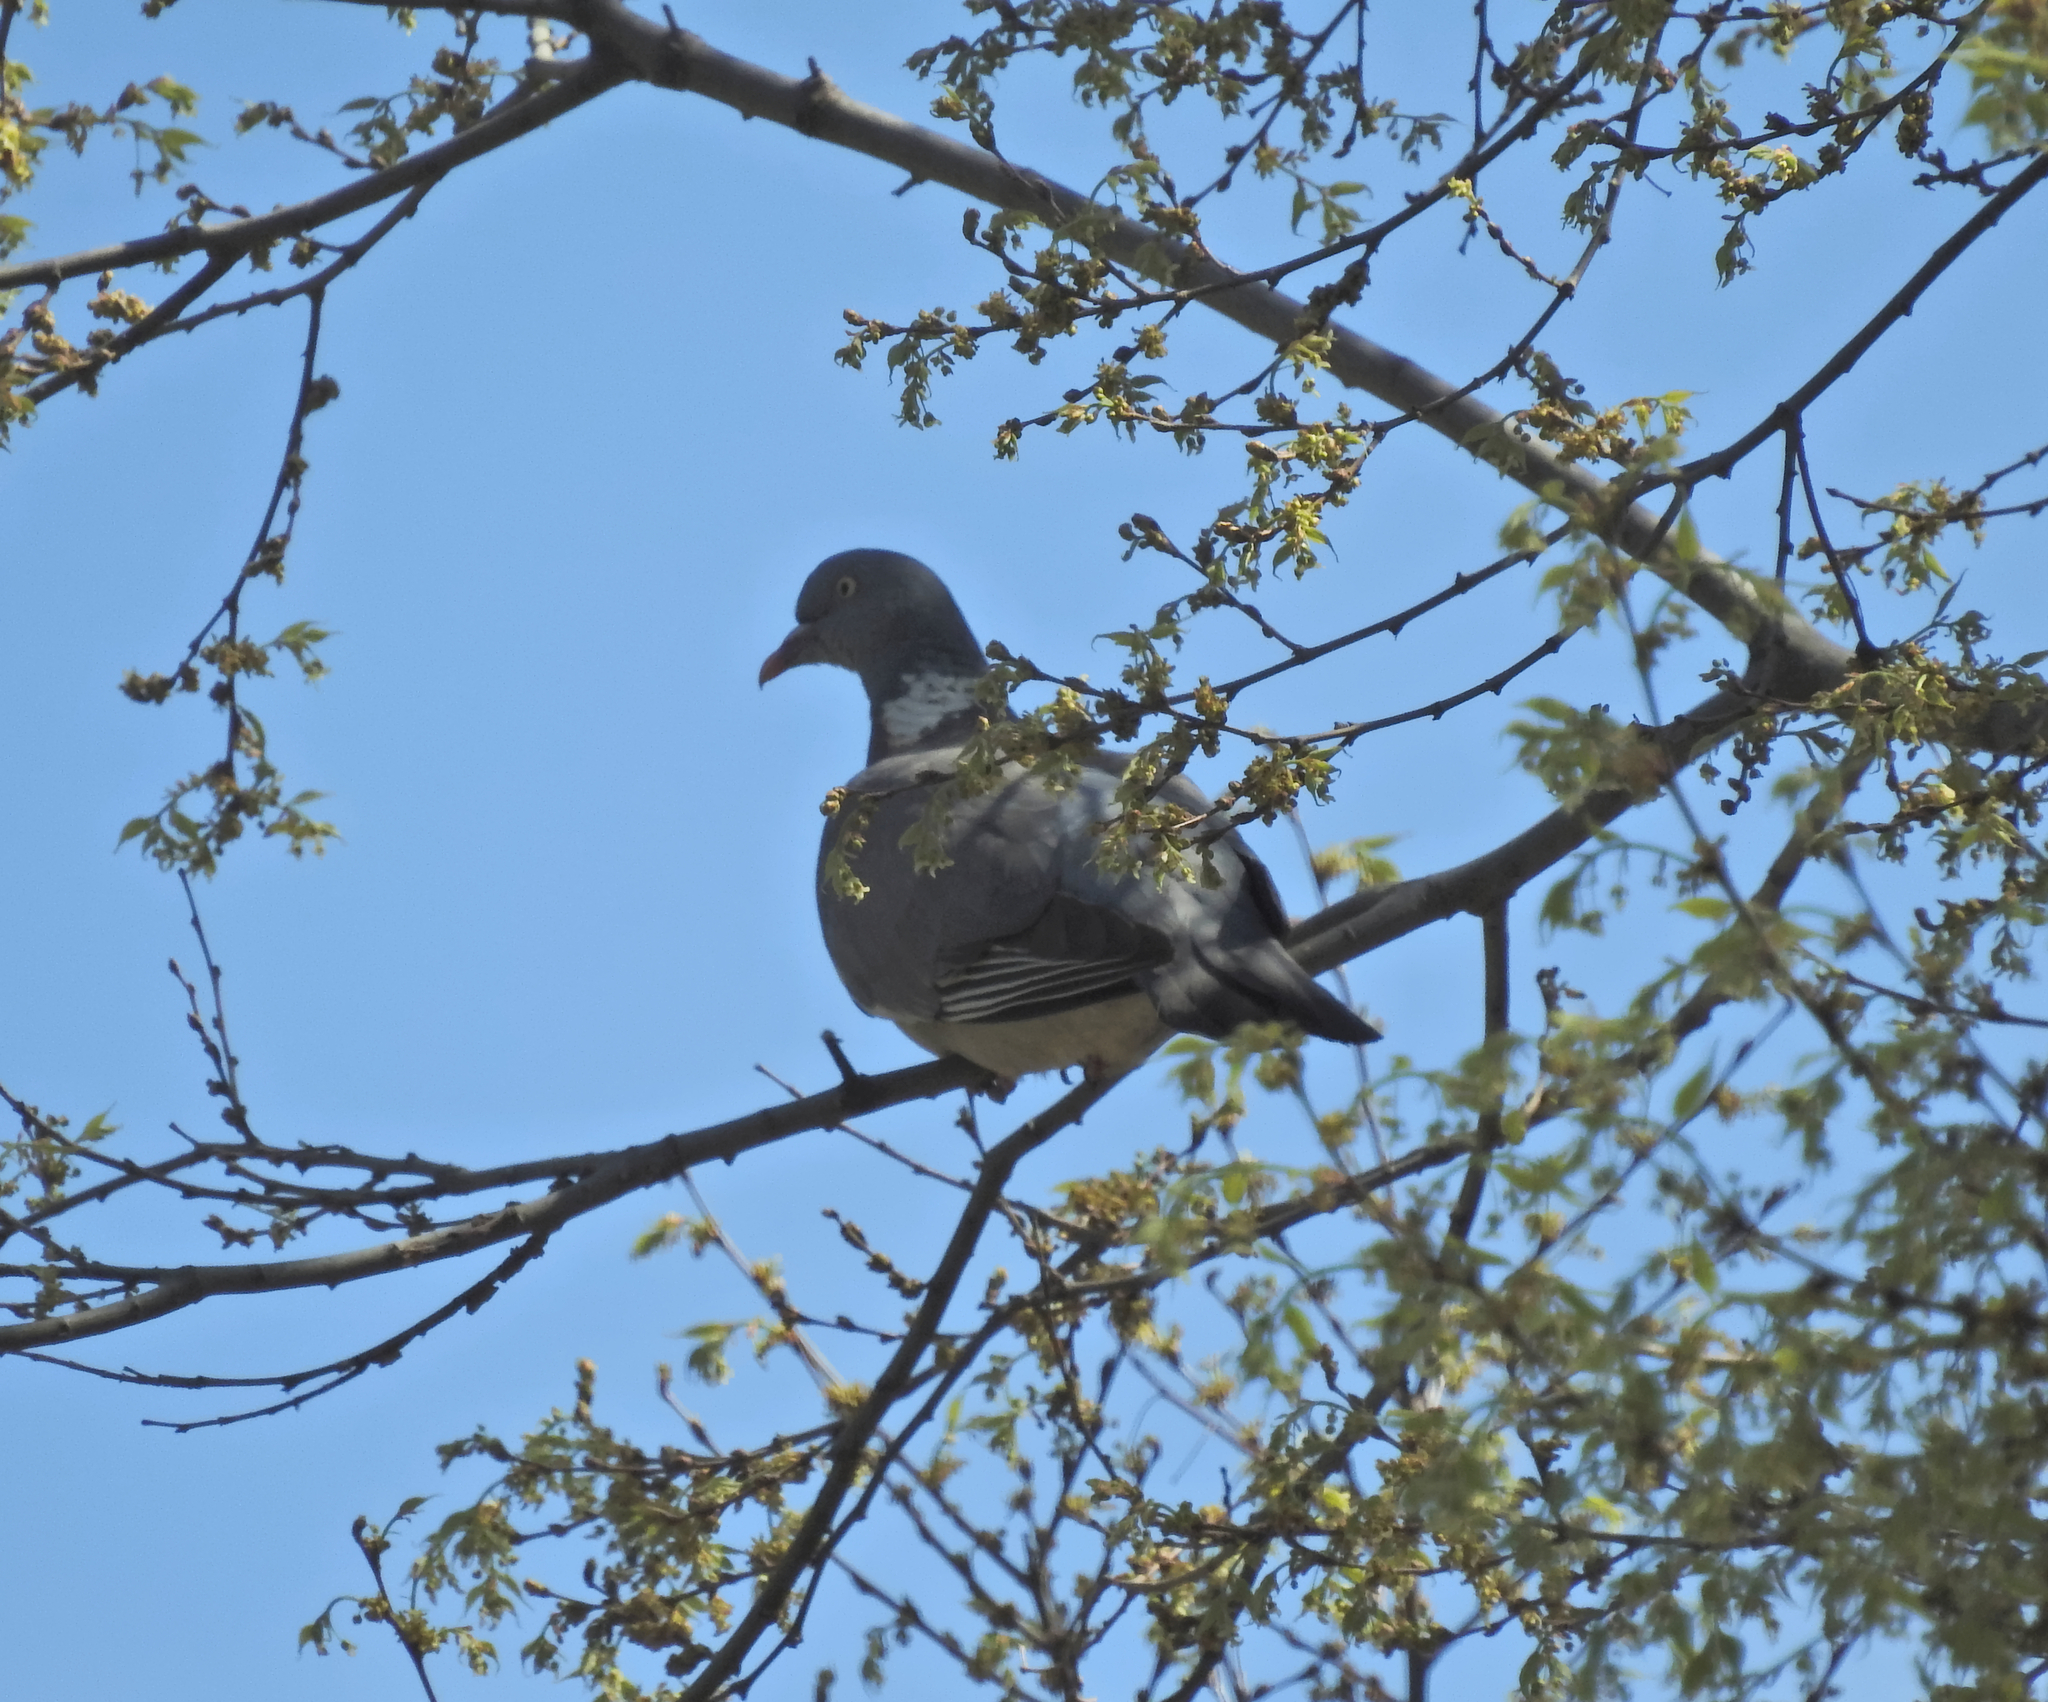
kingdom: Animalia
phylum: Chordata
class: Aves
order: Columbiformes
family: Columbidae
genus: Columba
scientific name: Columba palumbus
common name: Common wood pigeon
